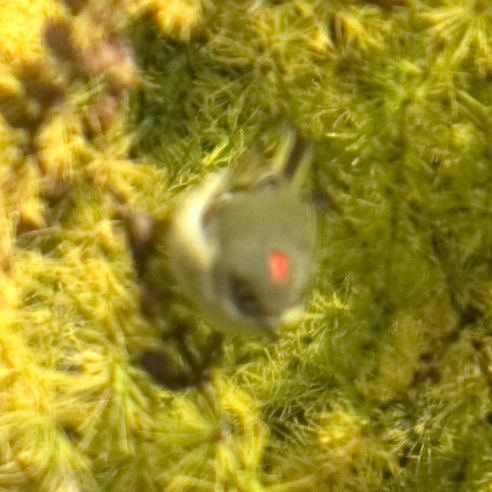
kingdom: Animalia
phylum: Chordata
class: Aves
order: Passeriformes
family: Regulidae
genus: Regulus
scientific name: Regulus calendula
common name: Ruby-crowned kinglet
